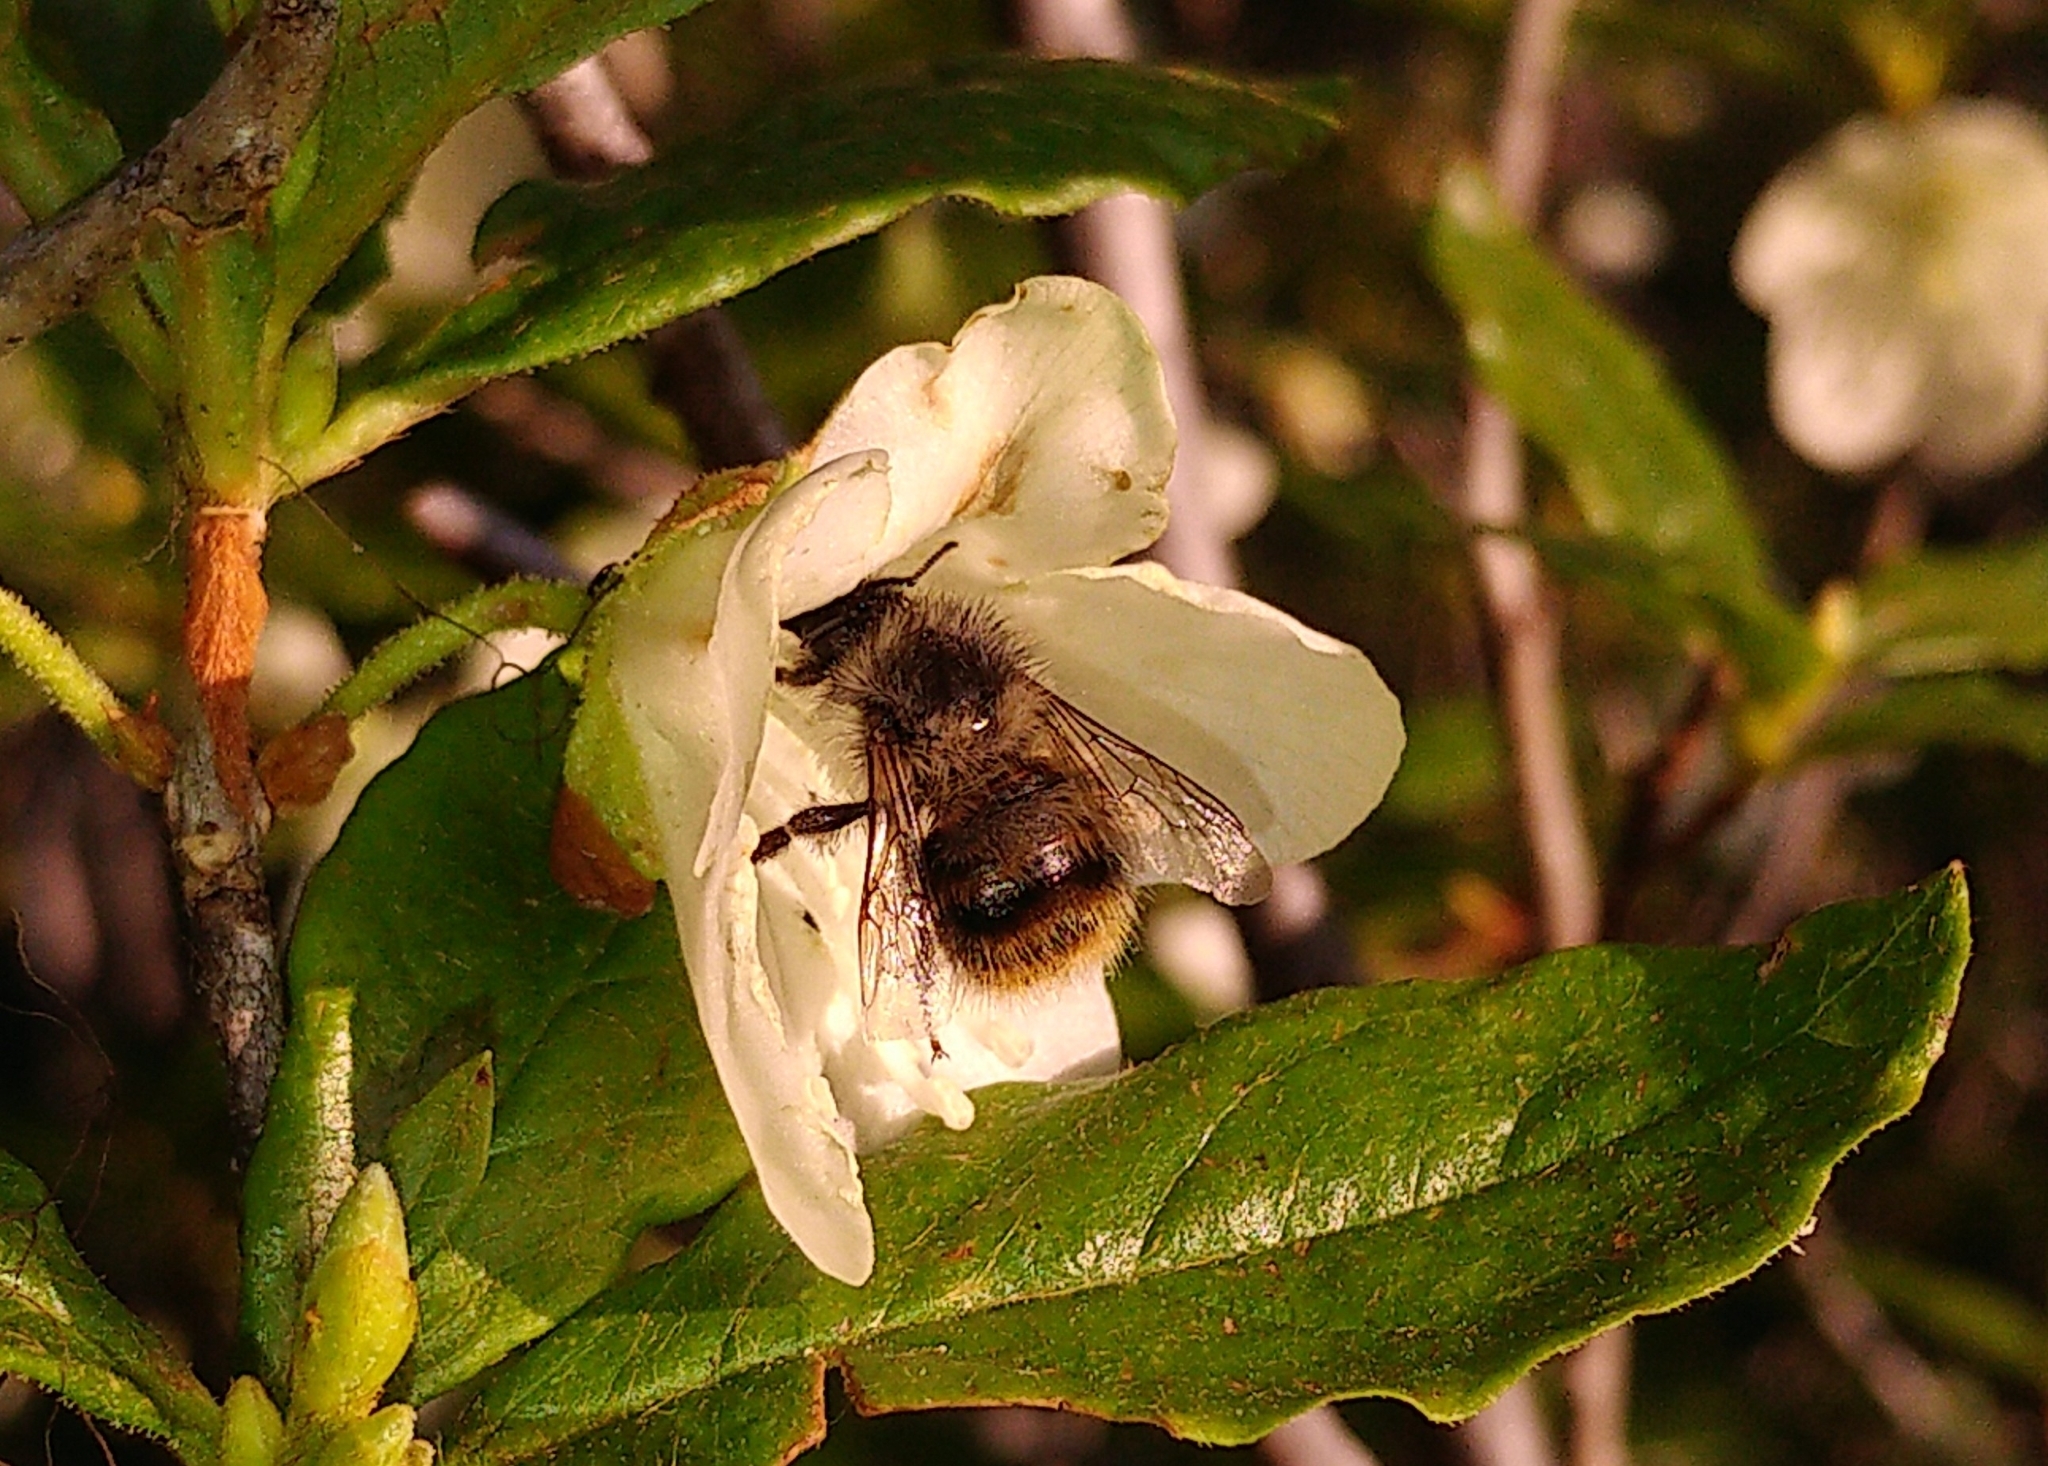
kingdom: Animalia
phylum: Arthropoda
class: Insecta
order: Hymenoptera
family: Apidae
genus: Bombus
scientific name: Bombus mixtus
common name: Fuzzy-horned bumble bee
